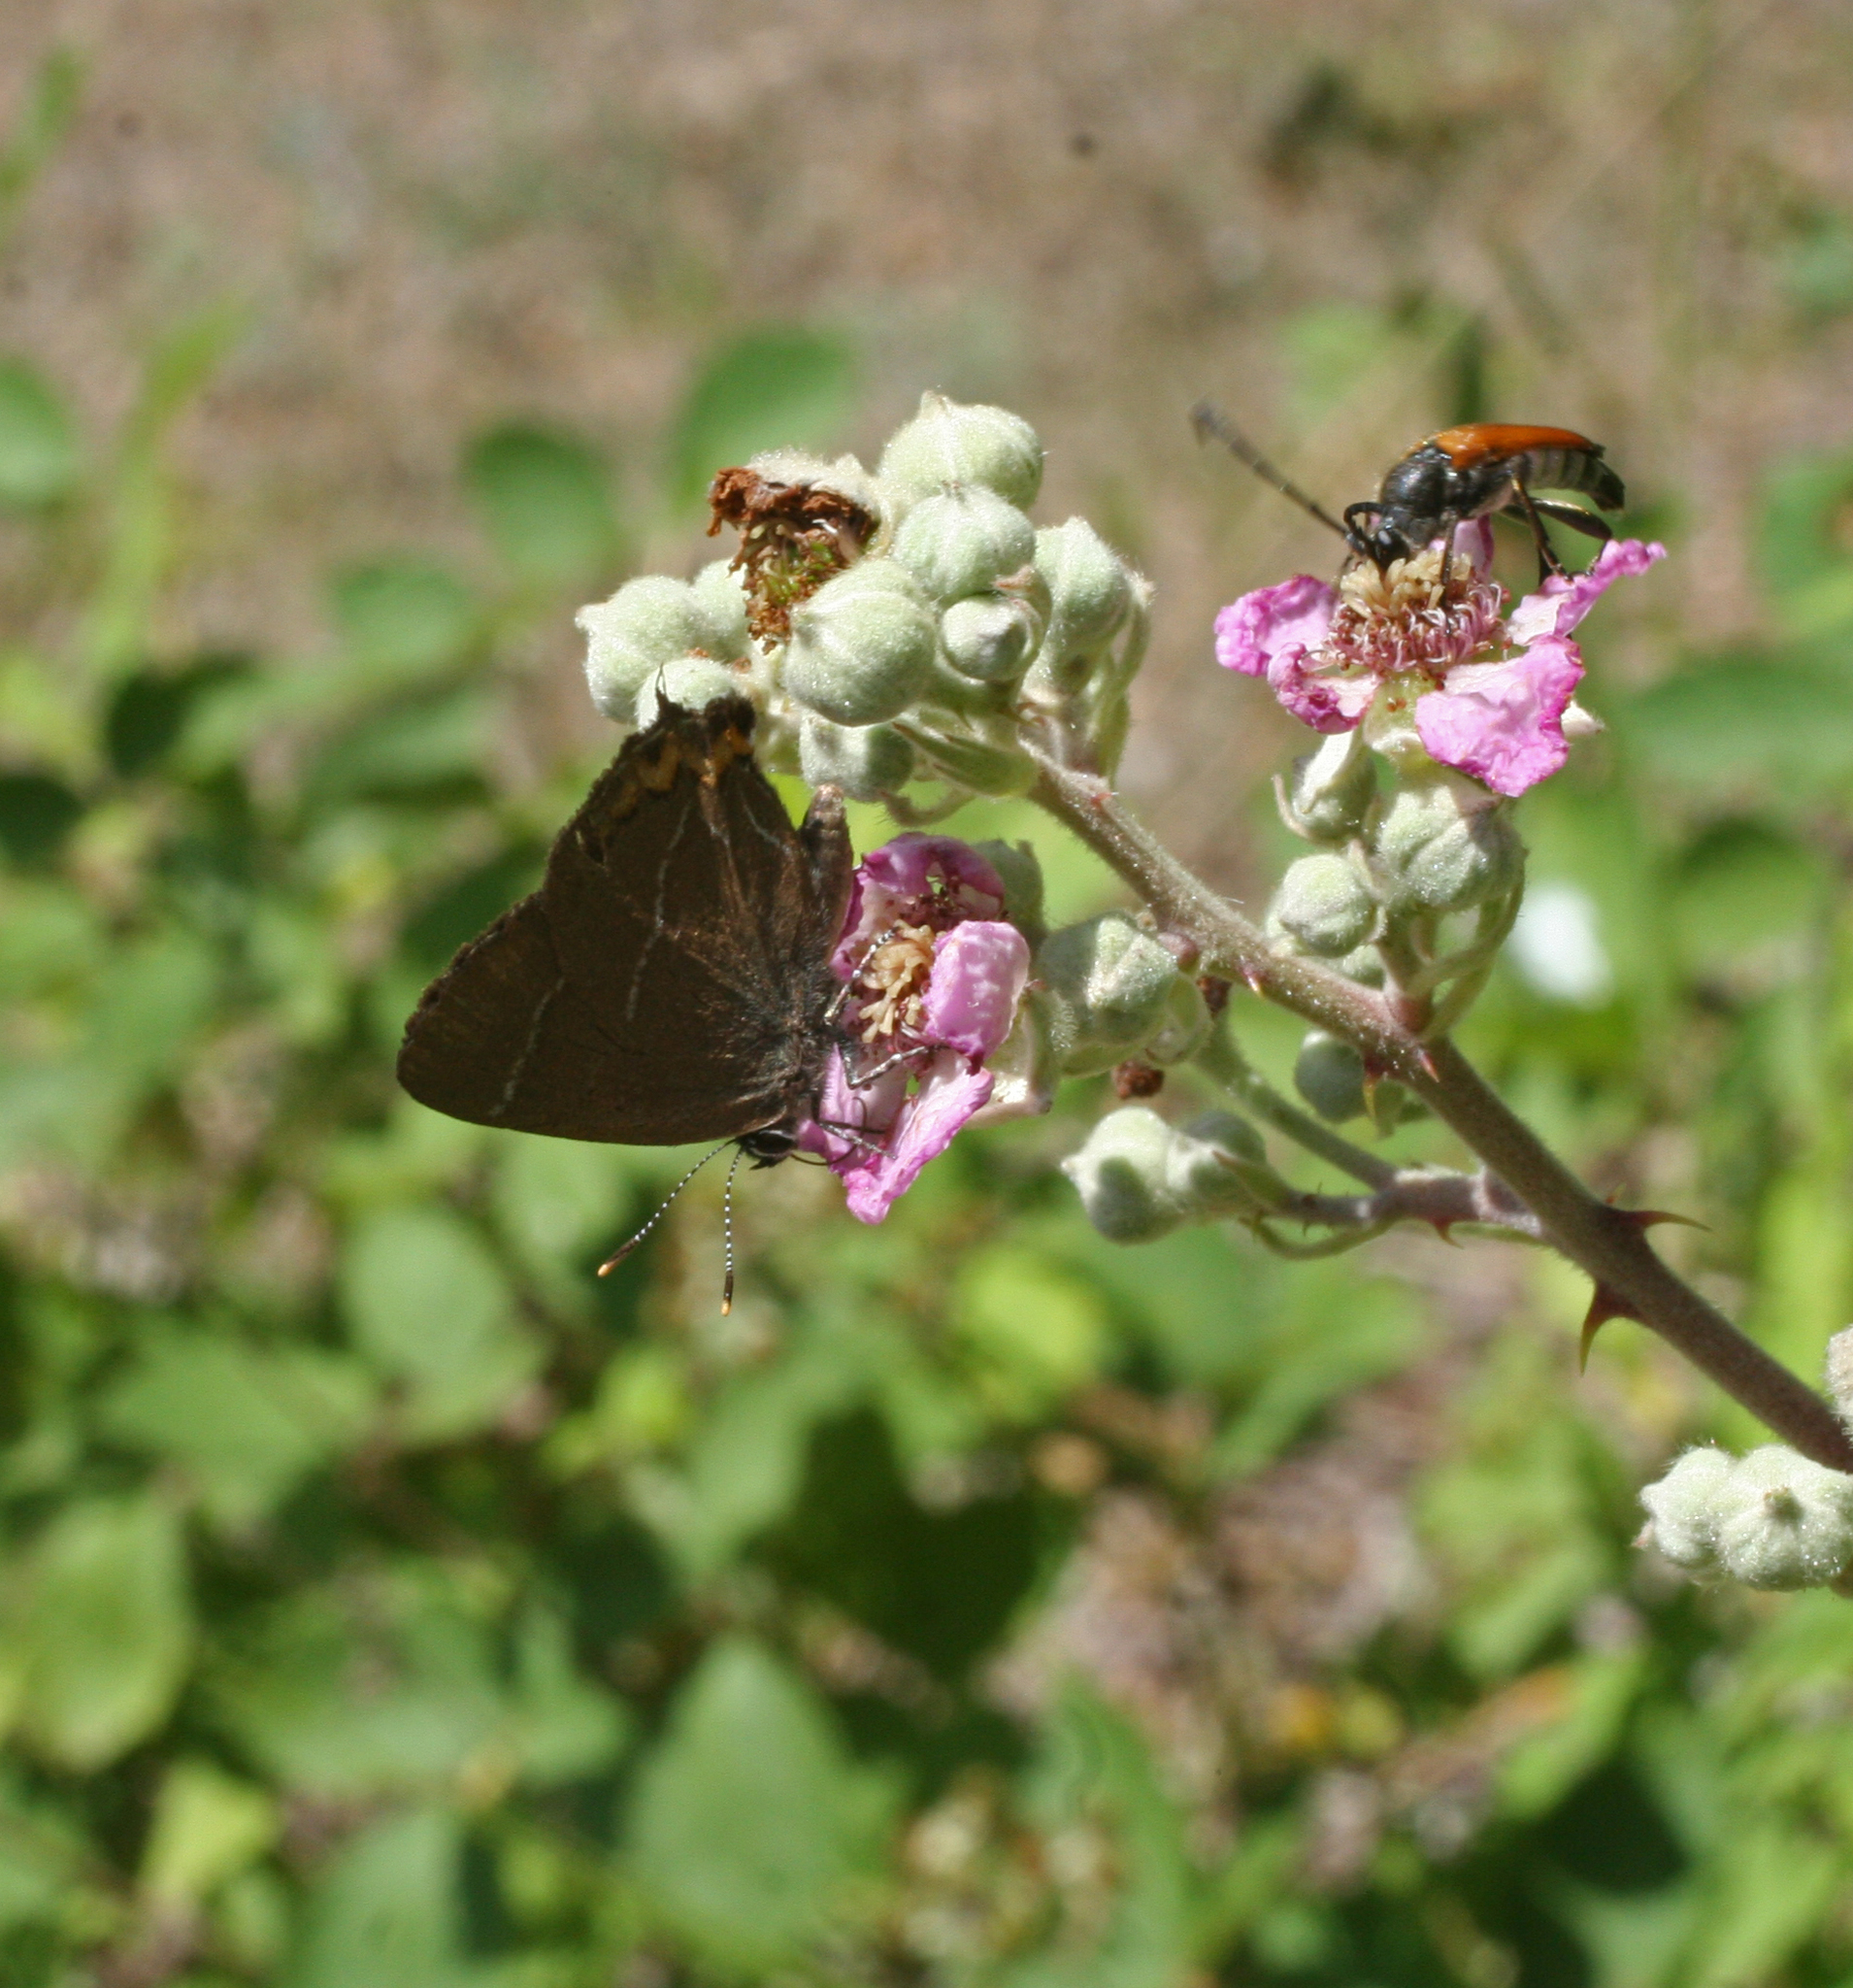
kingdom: Animalia
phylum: Arthropoda
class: Insecta
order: Lepidoptera
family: Lycaenidae
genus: Satyrium
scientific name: Satyrium w-album
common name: White-letter hairstreak
